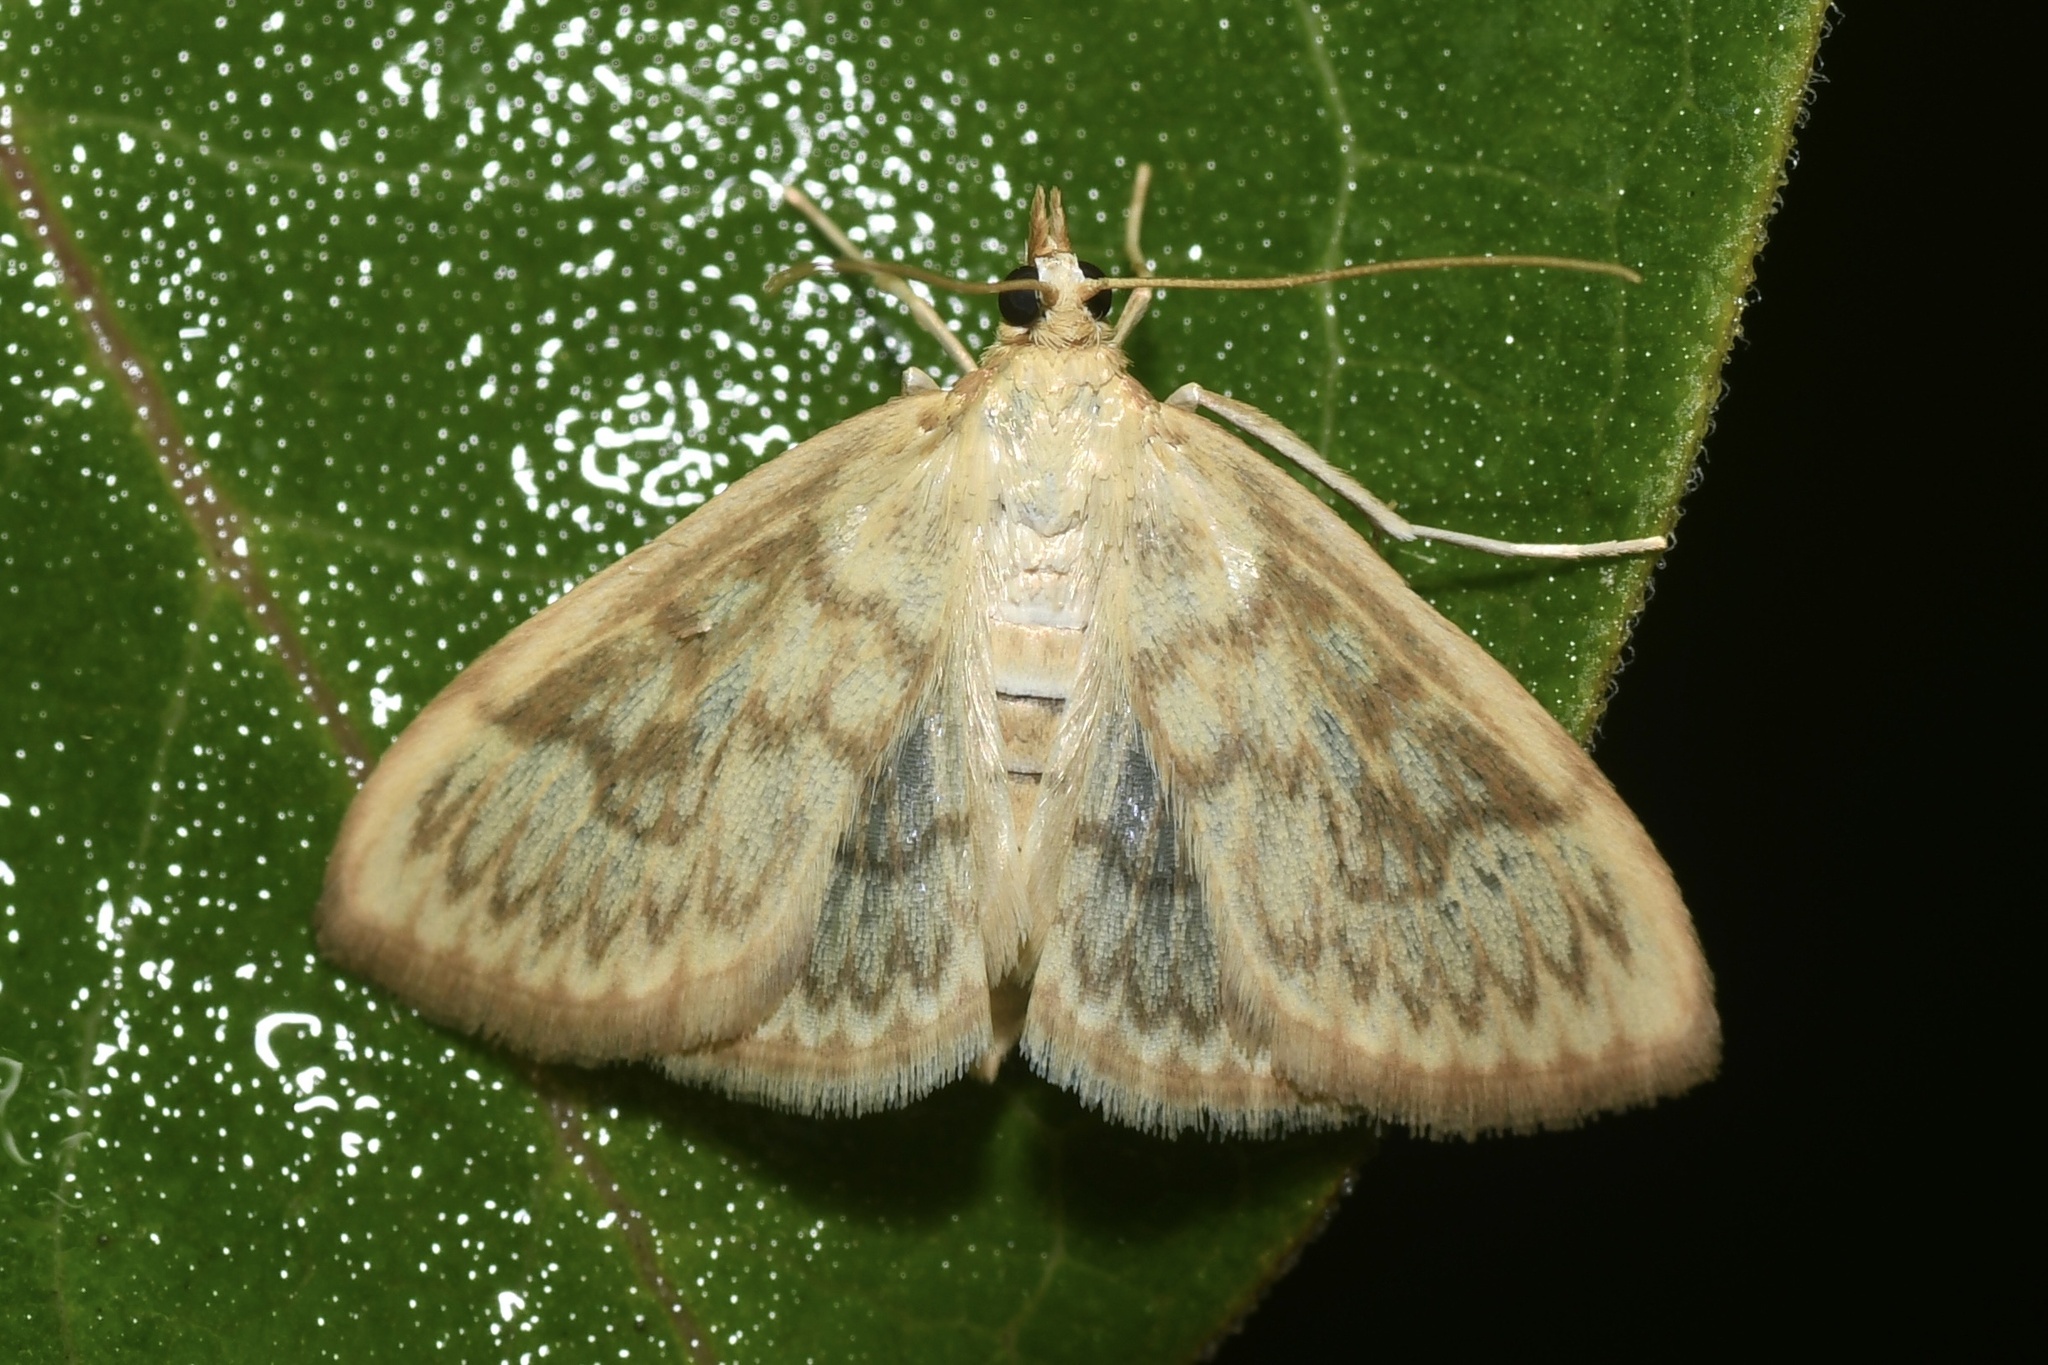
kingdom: Animalia
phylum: Arthropoda
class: Insecta
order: Lepidoptera
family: Crambidae
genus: Crocidophora
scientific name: Crocidophora serratissimalis
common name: Saw-toothed crocidophora moth
